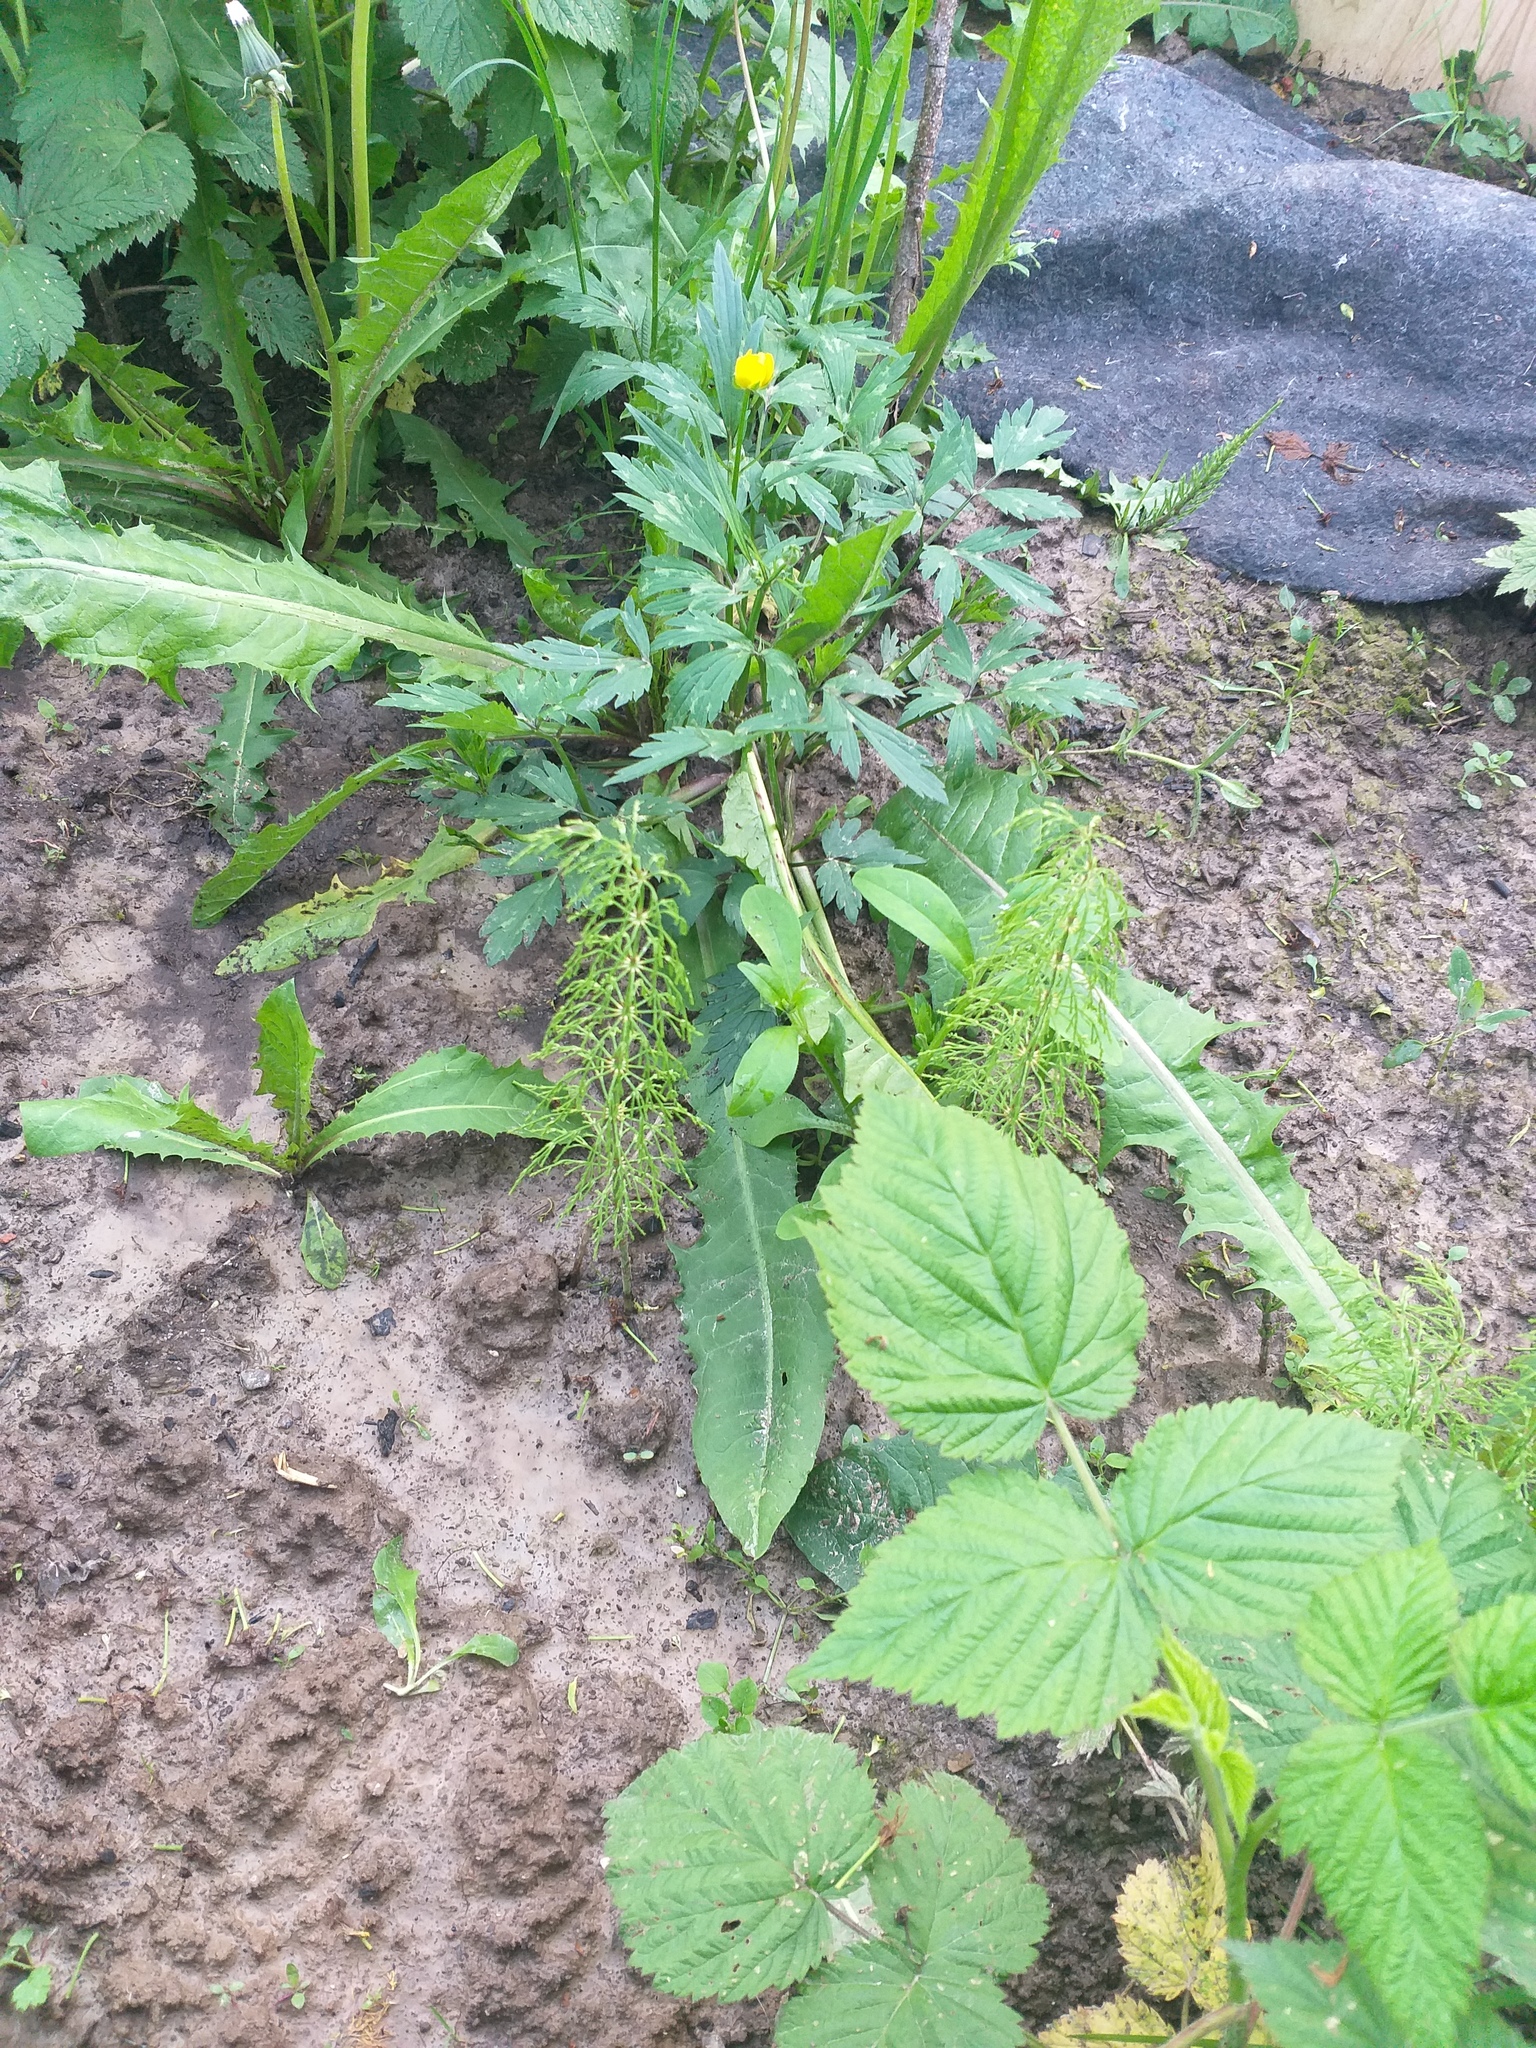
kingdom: Plantae
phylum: Tracheophyta
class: Polypodiopsida
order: Equisetales
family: Equisetaceae
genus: Equisetum
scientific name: Equisetum sylvaticum
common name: Wood horsetail
